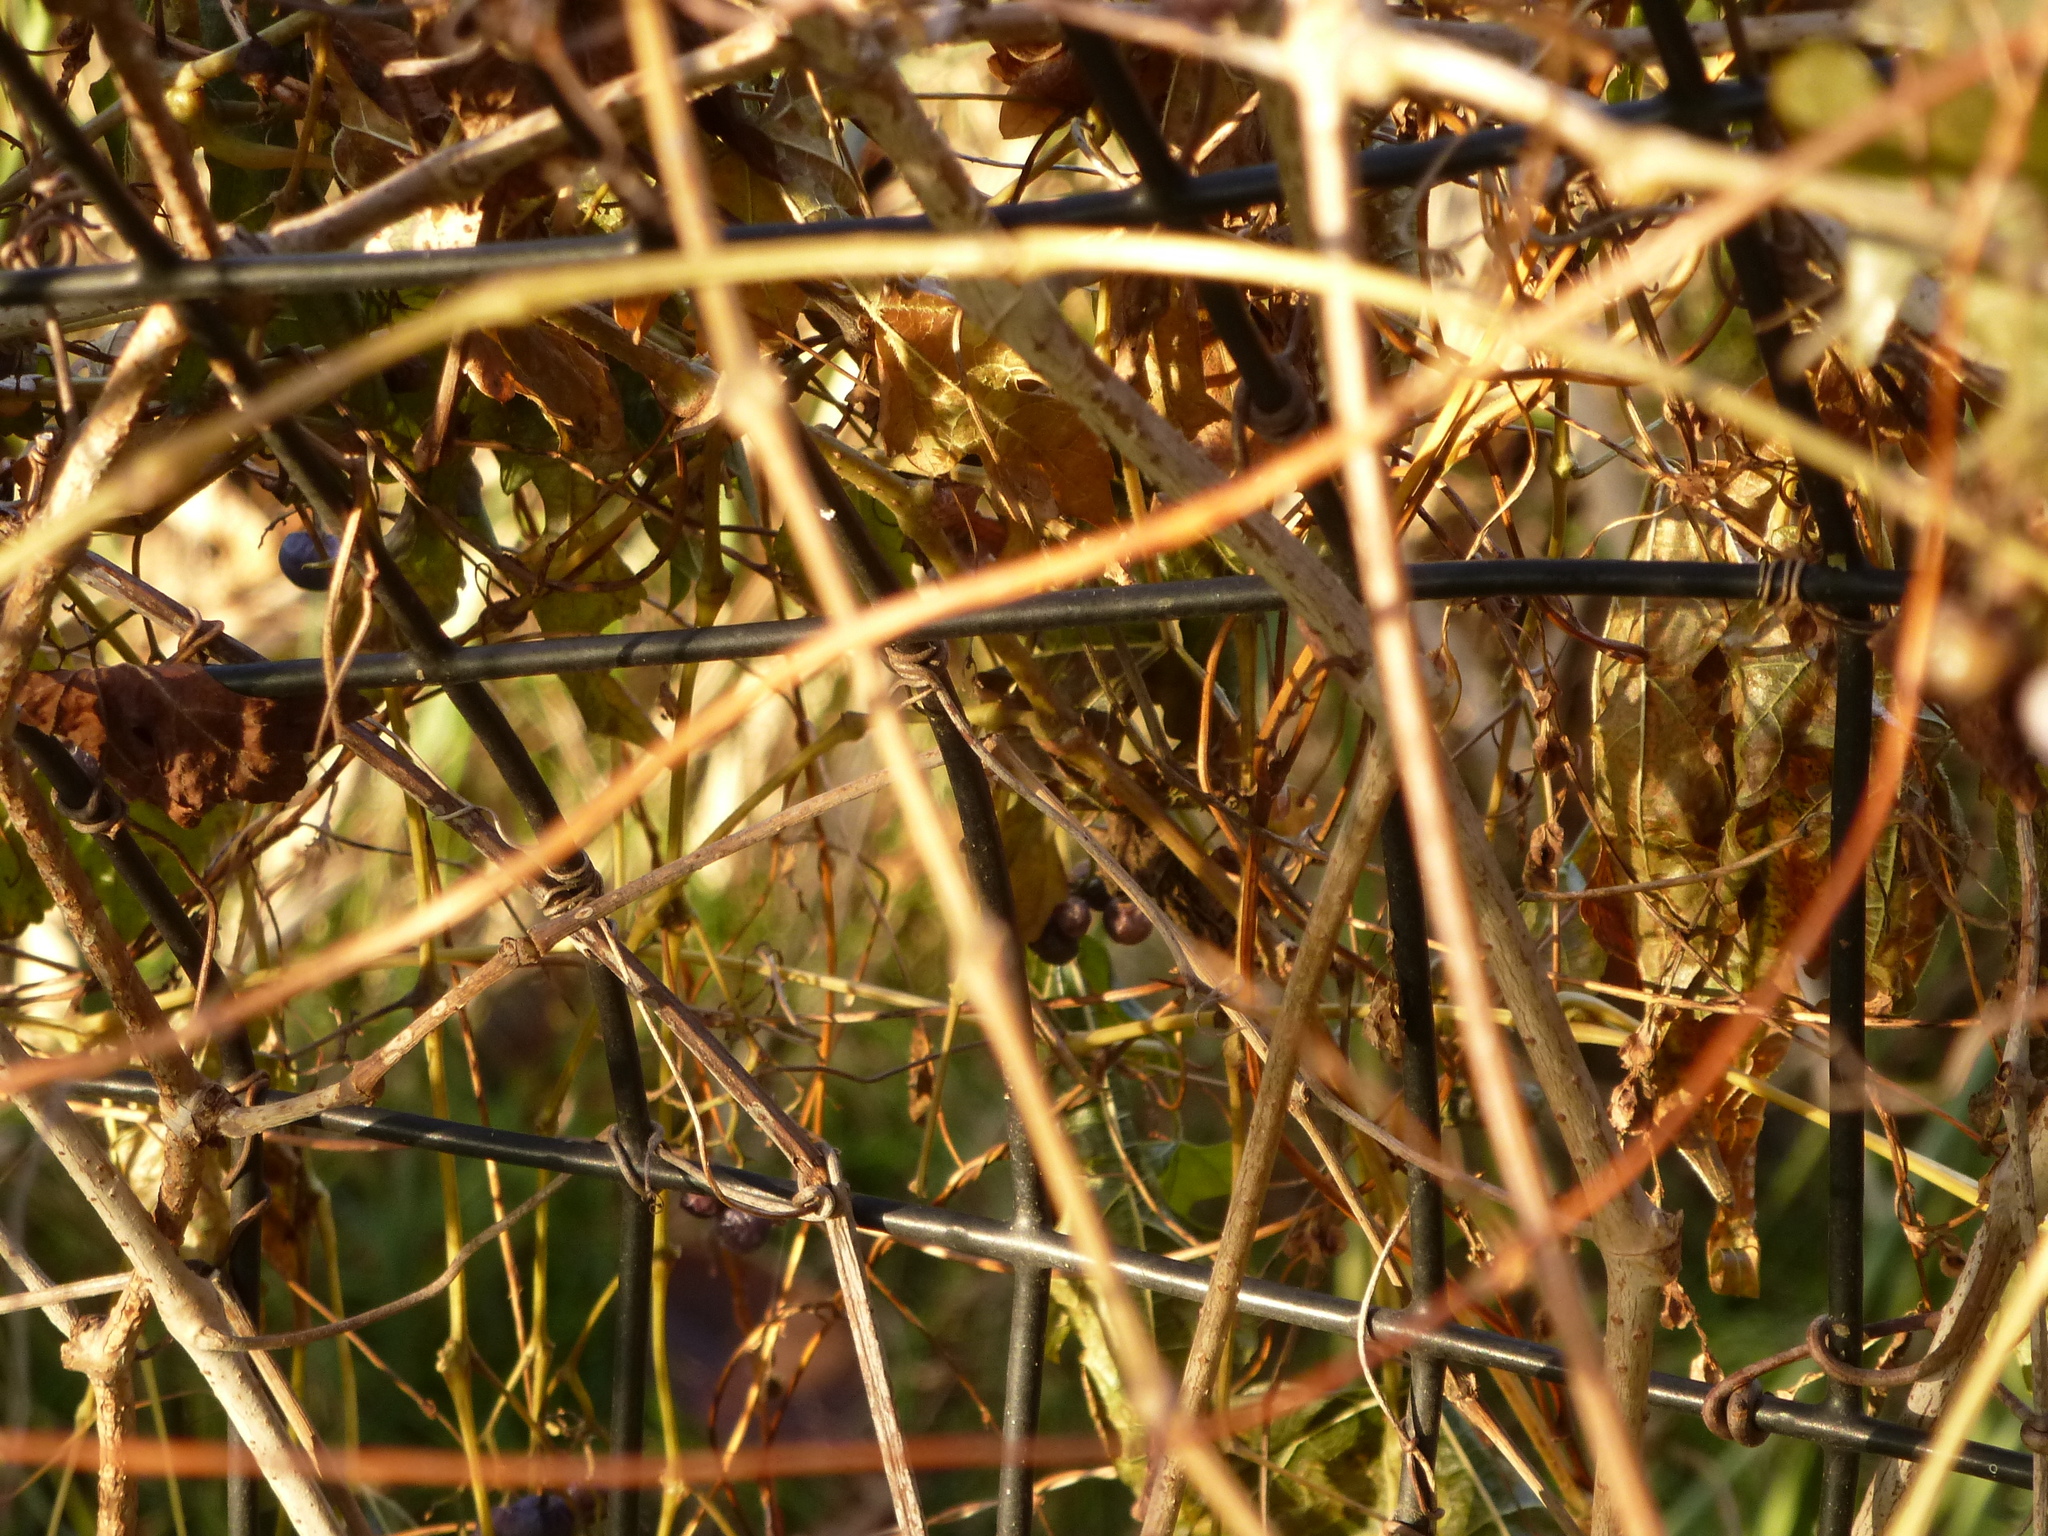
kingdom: Plantae
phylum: Tracheophyta
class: Magnoliopsida
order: Vitales
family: Vitaceae
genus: Ampelopsis
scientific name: Ampelopsis glandulosa
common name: Amur peppervine
